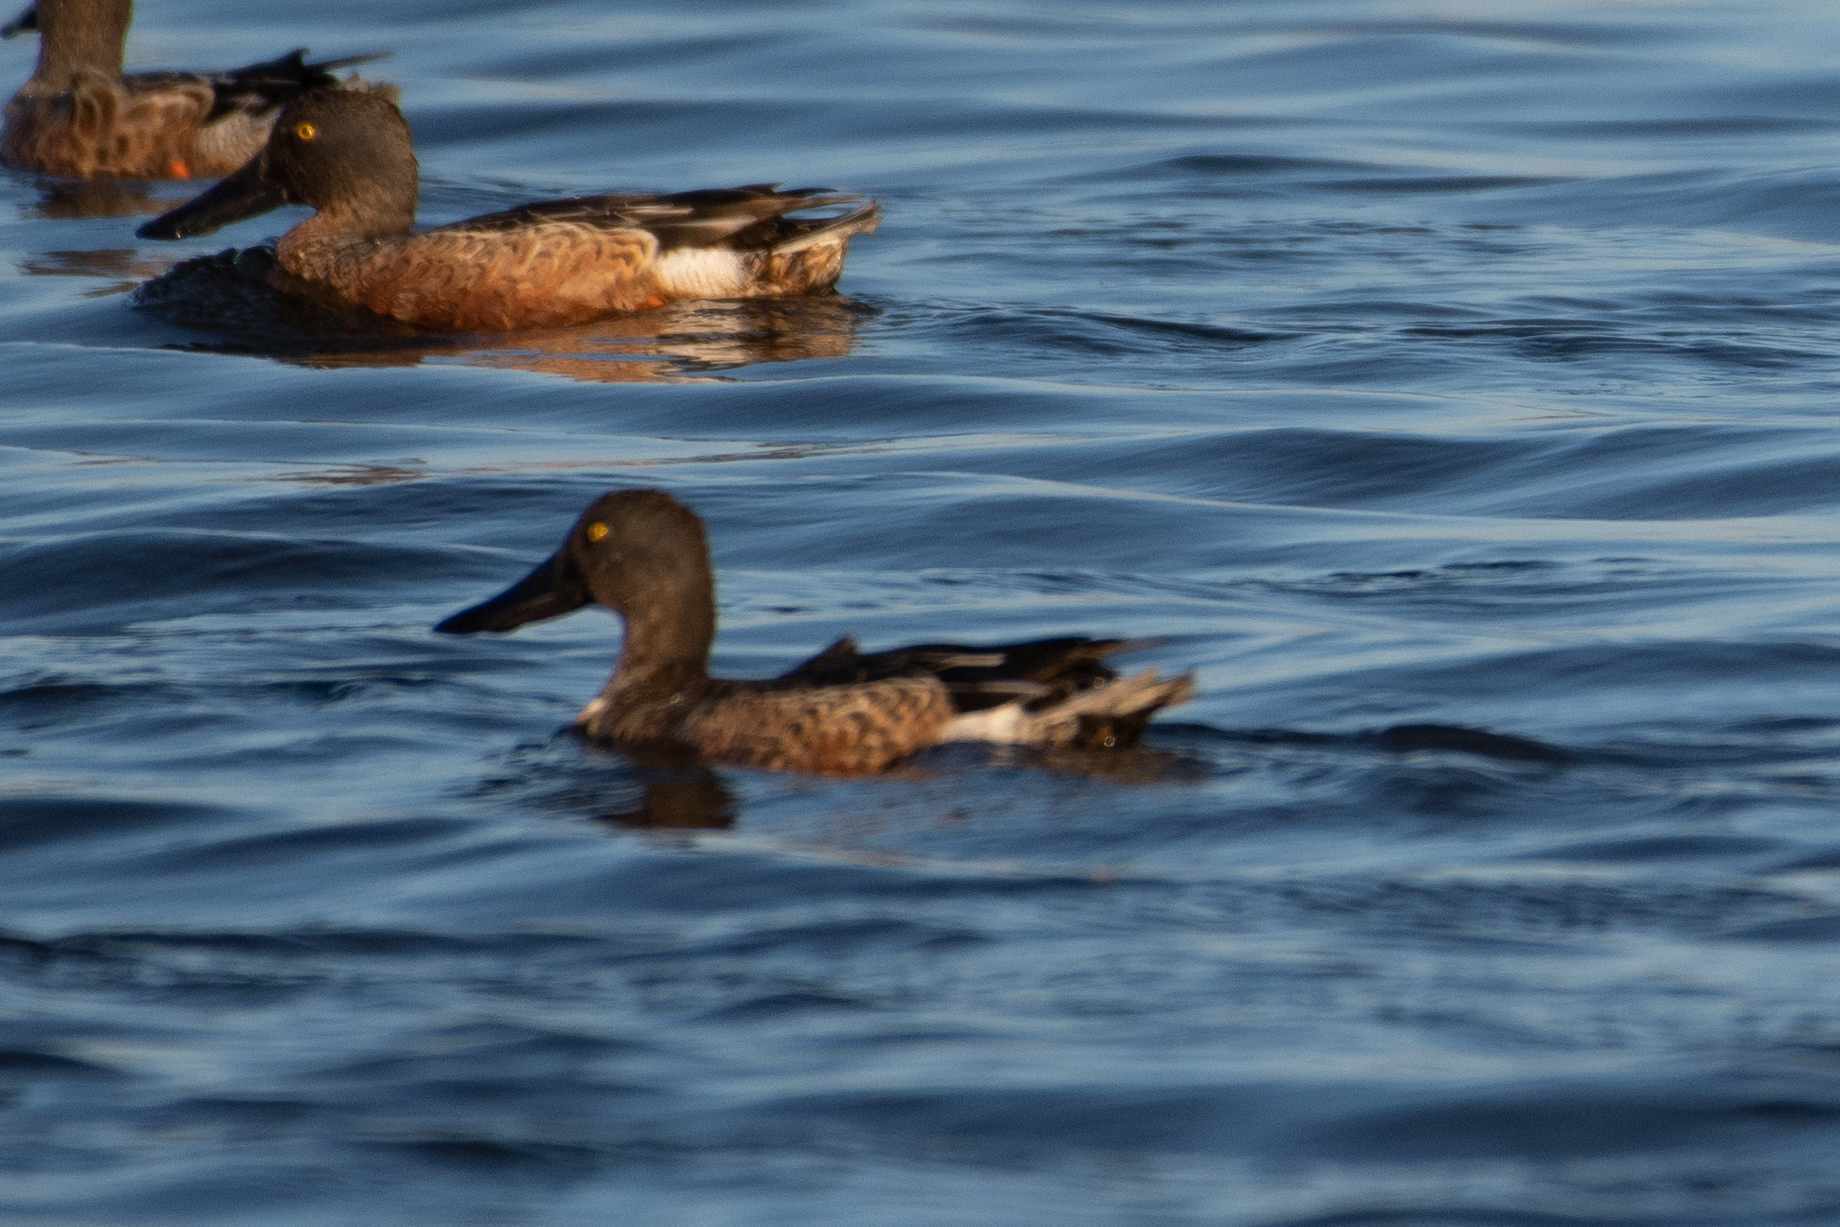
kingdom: Animalia
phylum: Chordata
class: Aves
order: Anseriformes
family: Anatidae
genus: Spatula
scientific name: Spatula clypeata
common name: Northern shoveler
